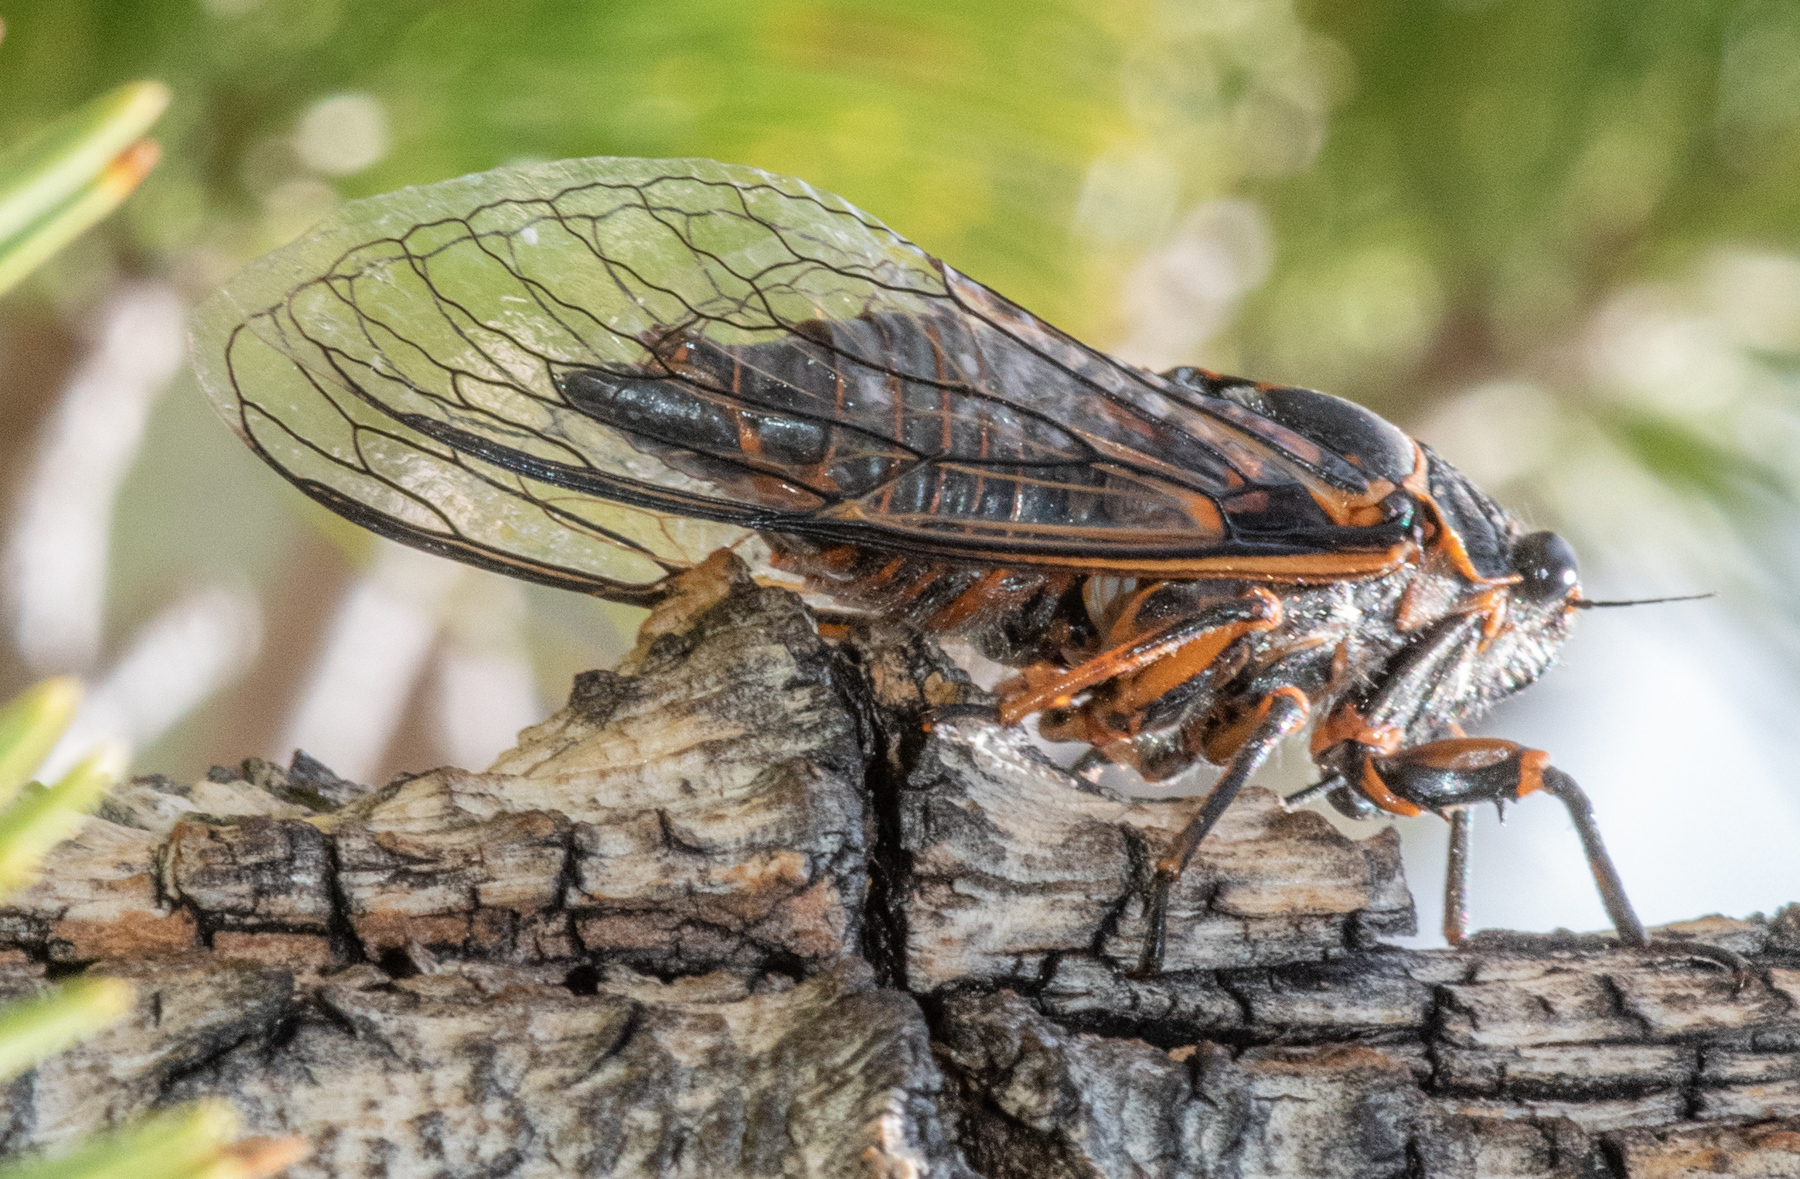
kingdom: Animalia
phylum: Arthropoda
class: Insecta
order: Hemiptera
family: Cicadidae
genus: Okanagana
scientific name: Okanagana bella
